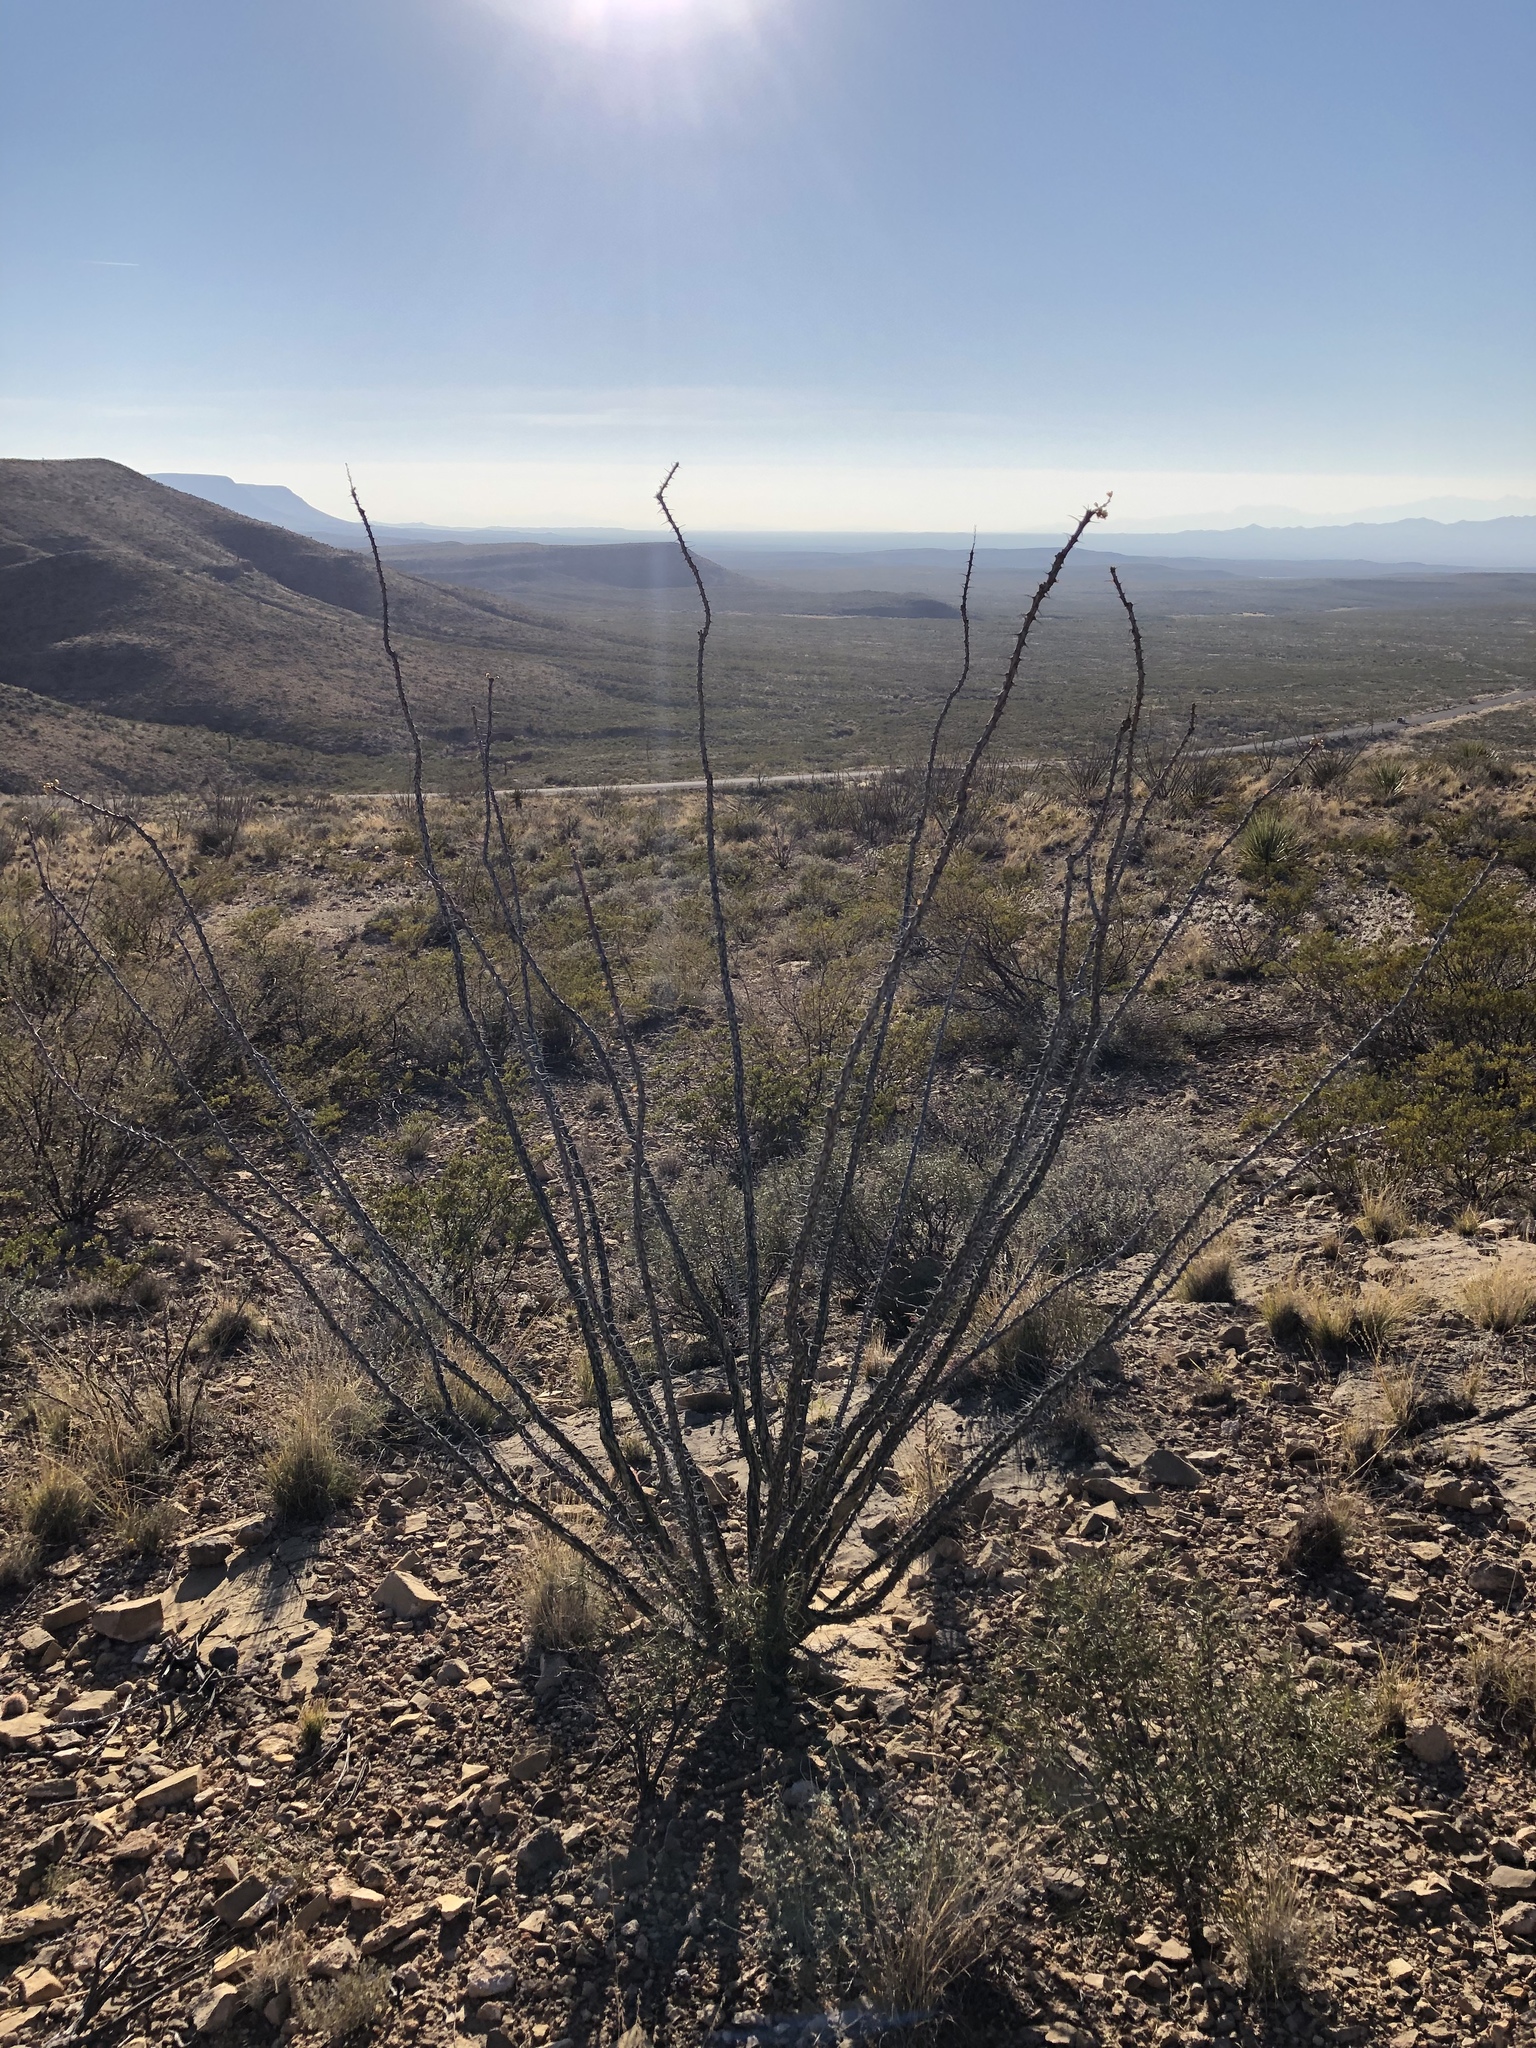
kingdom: Plantae
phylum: Tracheophyta
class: Magnoliopsida
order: Ericales
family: Fouquieriaceae
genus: Fouquieria
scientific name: Fouquieria splendens
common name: Vine-cactus
